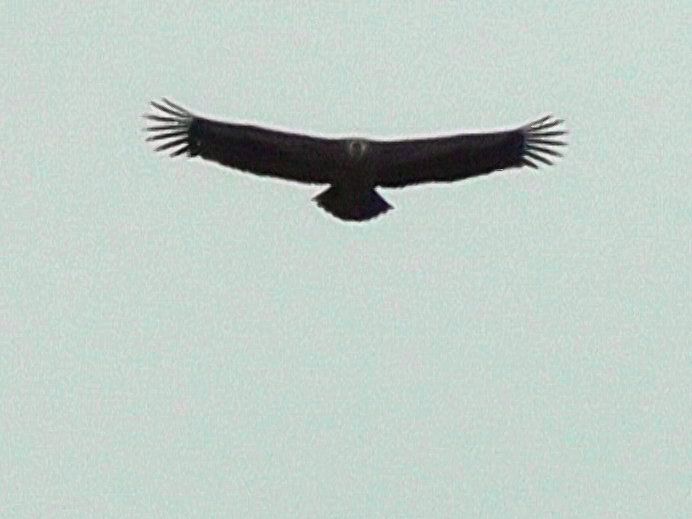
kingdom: Animalia
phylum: Chordata
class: Aves
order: Accipitriformes
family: Accipitridae
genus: Gyps
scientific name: Gyps fulvus
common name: Griffon vulture
